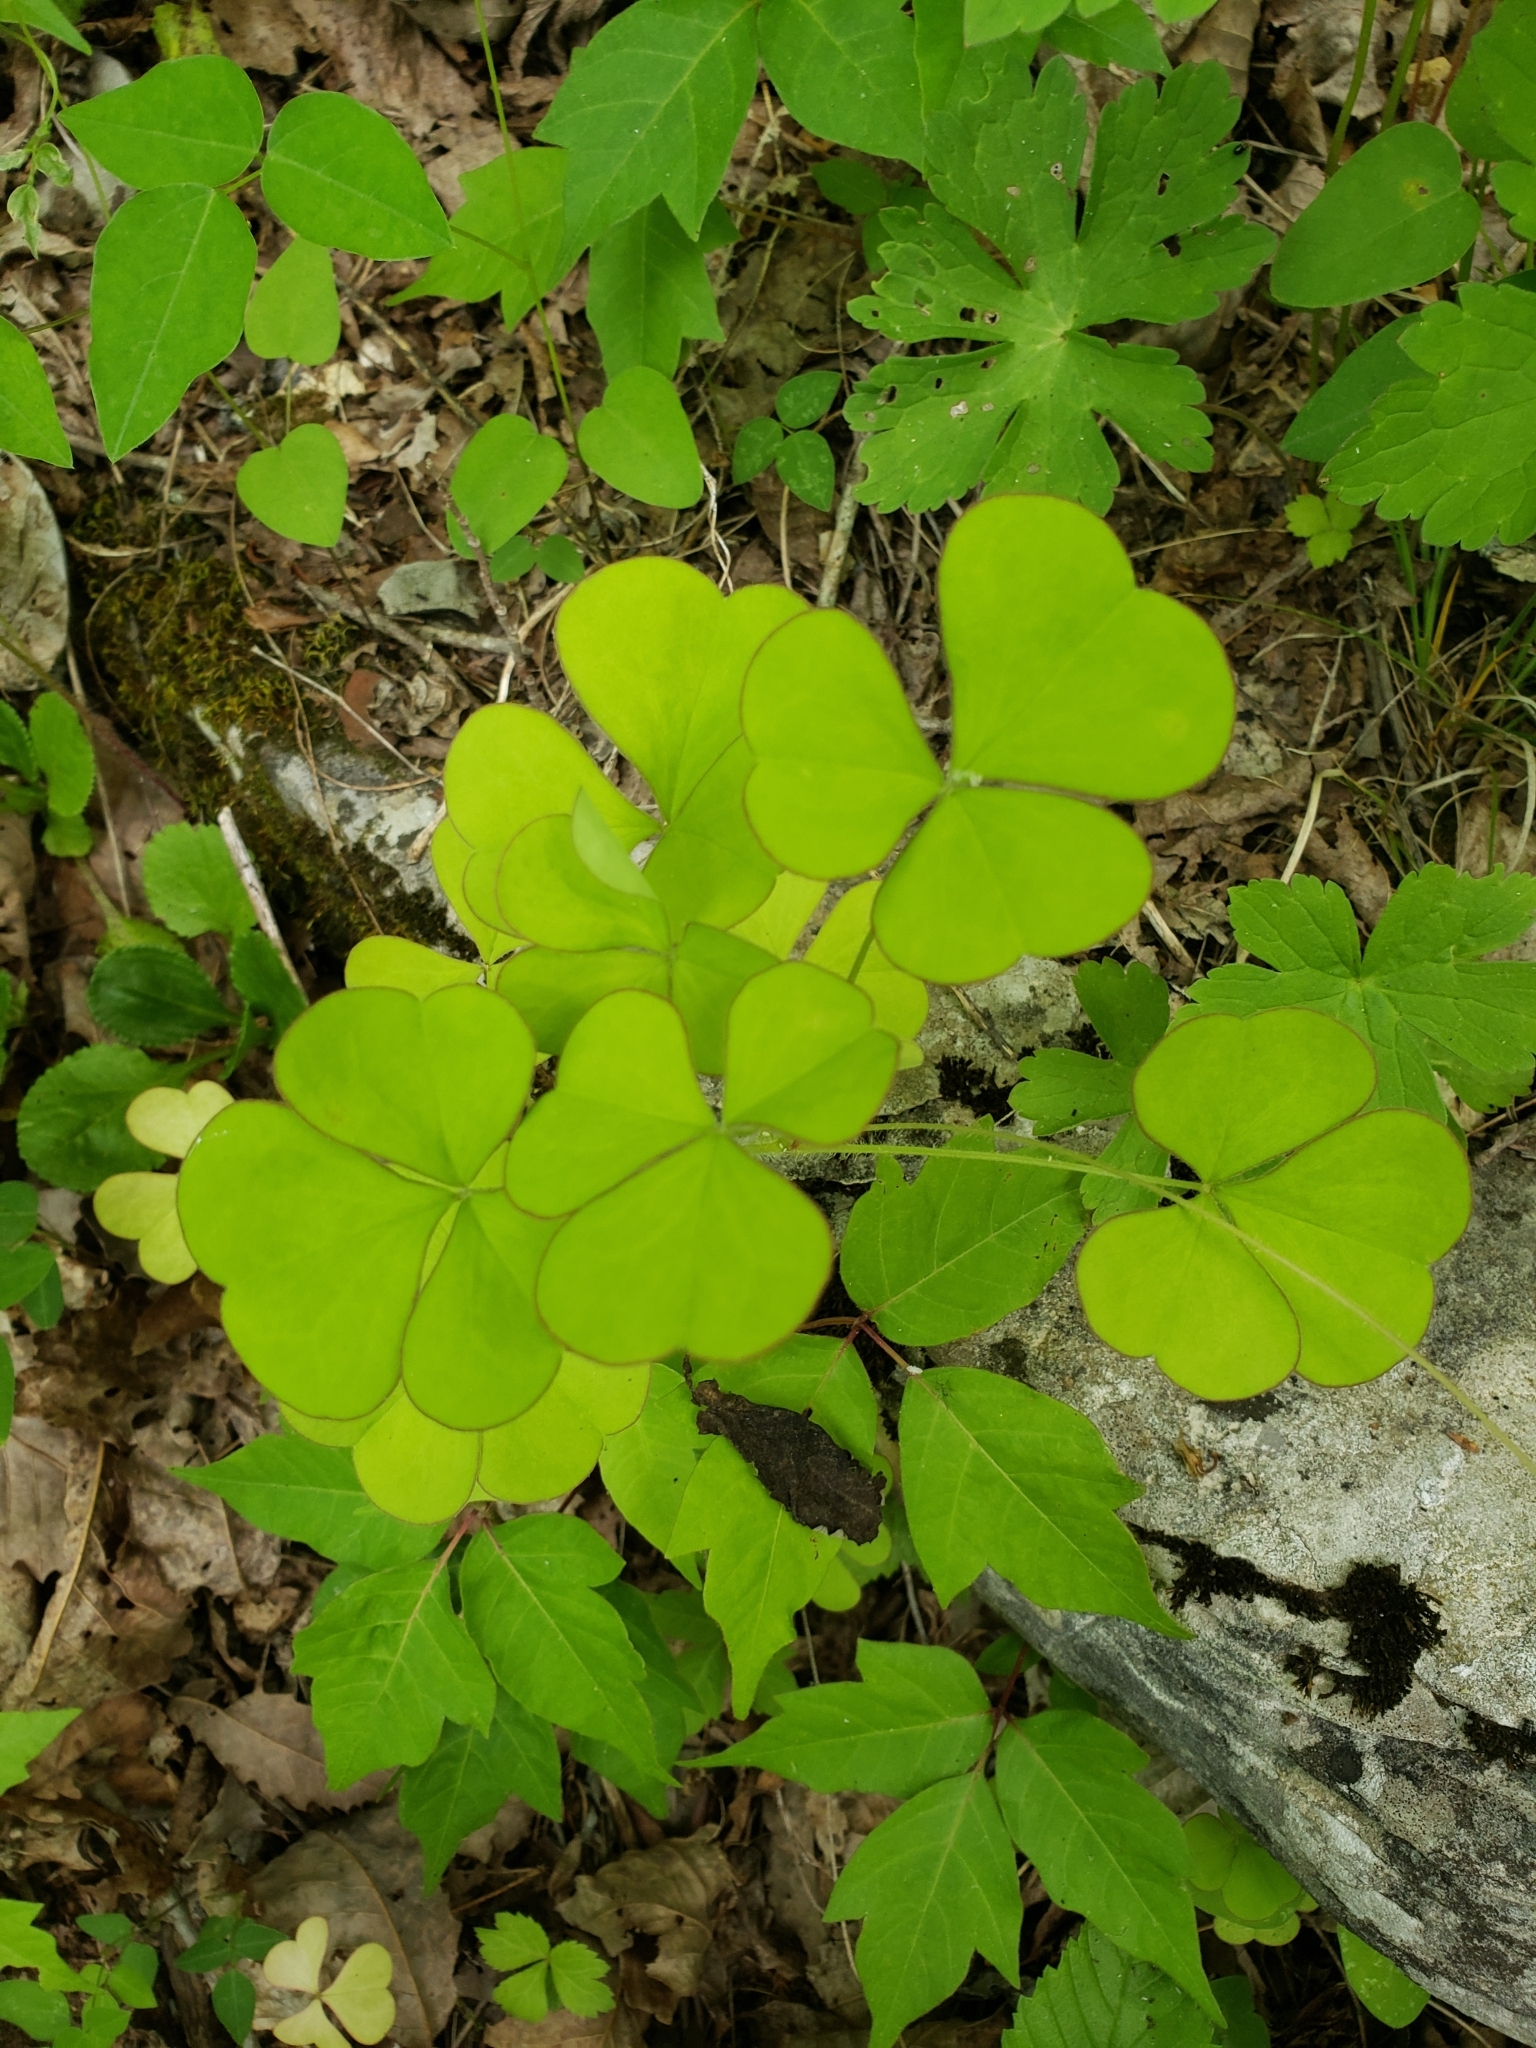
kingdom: Plantae
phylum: Tracheophyta
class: Magnoliopsida
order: Oxalidales
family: Oxalidaceae
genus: Oxalis
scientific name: Oxalis grandis
